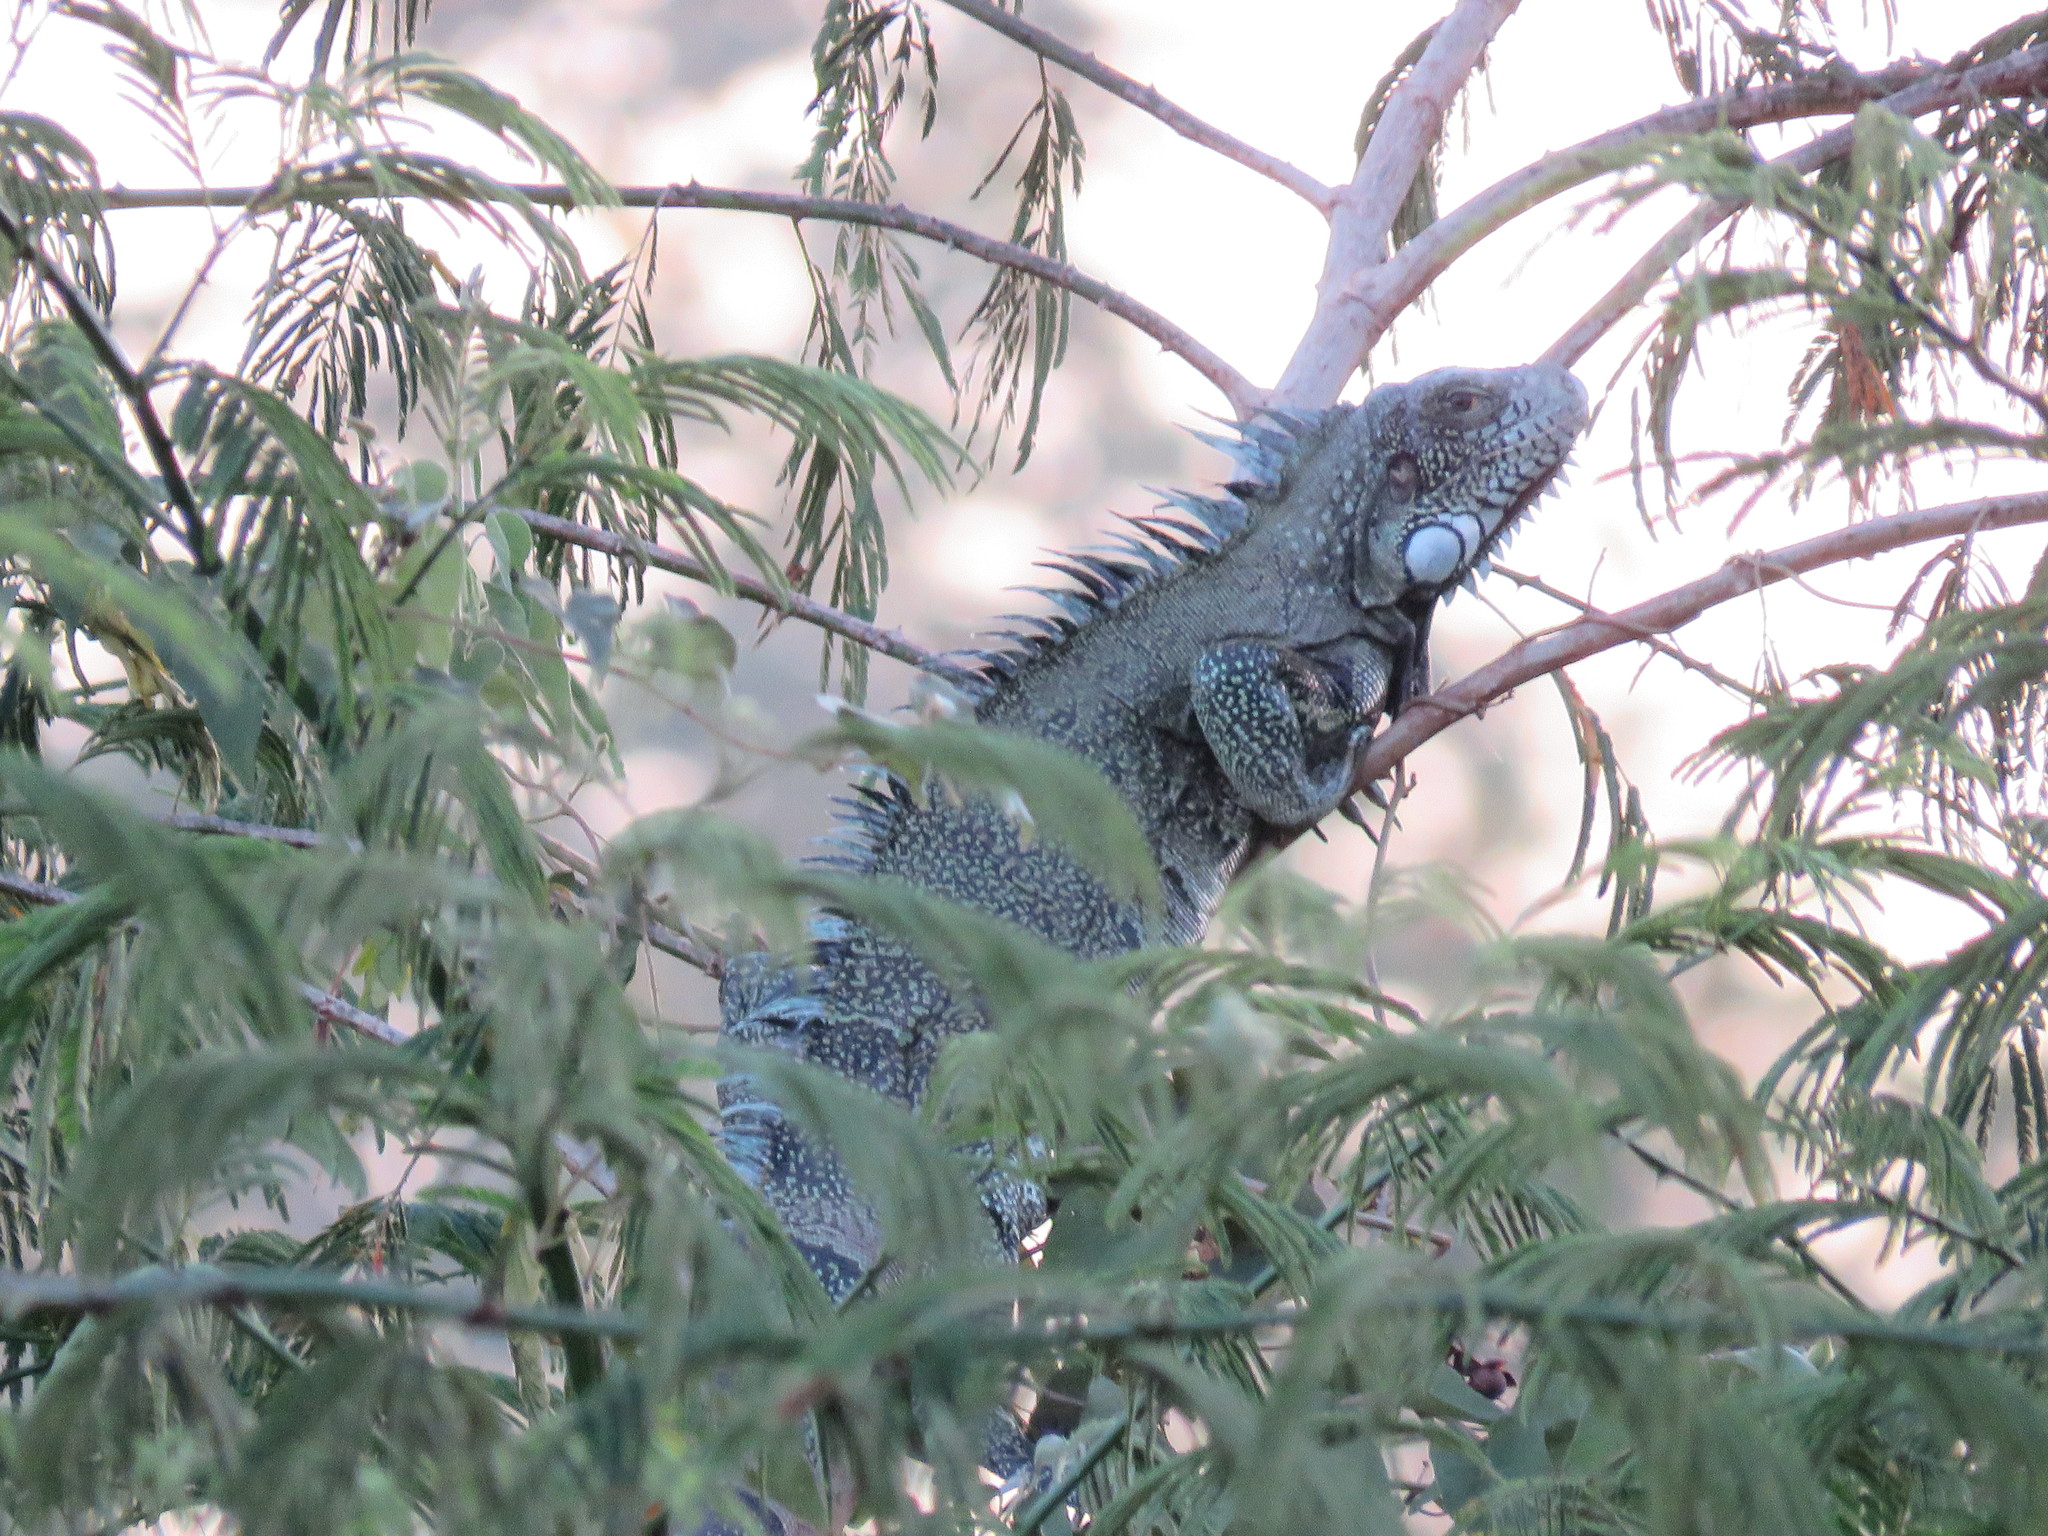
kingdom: Animalia
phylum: Chordata
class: Squamata
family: Iguanidae
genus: Iguana
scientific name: Iguana iguana
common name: Green iguana
